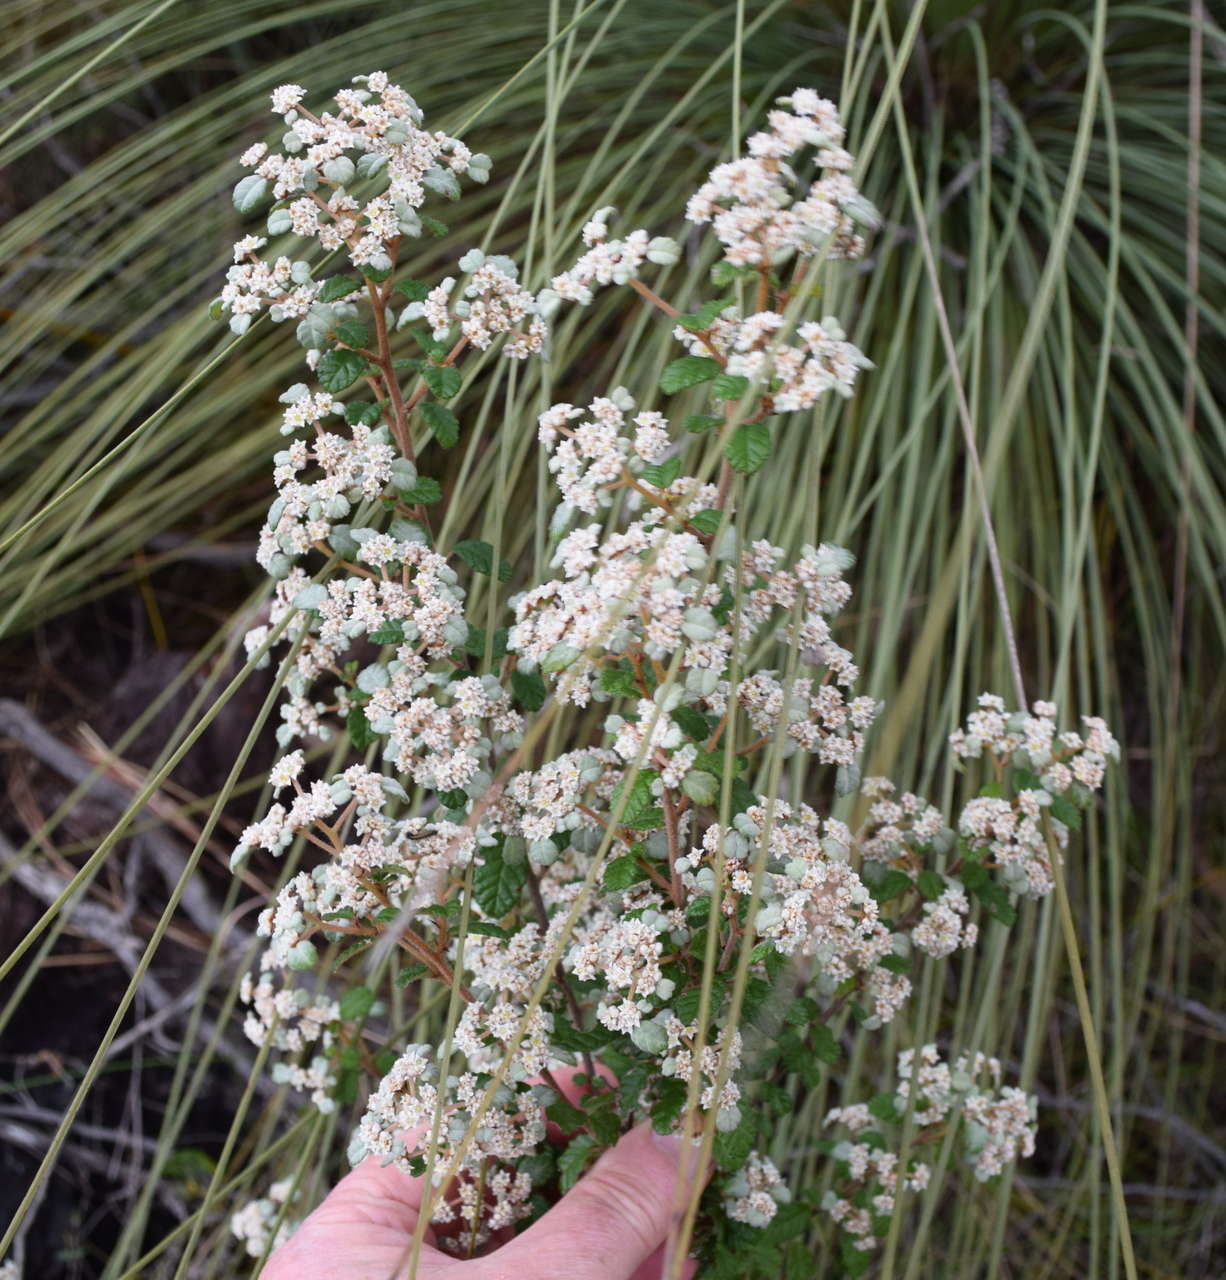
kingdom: Plantae
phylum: Tracheophyta
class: Magnoliopsida
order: Rosales
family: Rhamnaceae
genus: Spyridium
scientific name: Spyridium parvifolium
